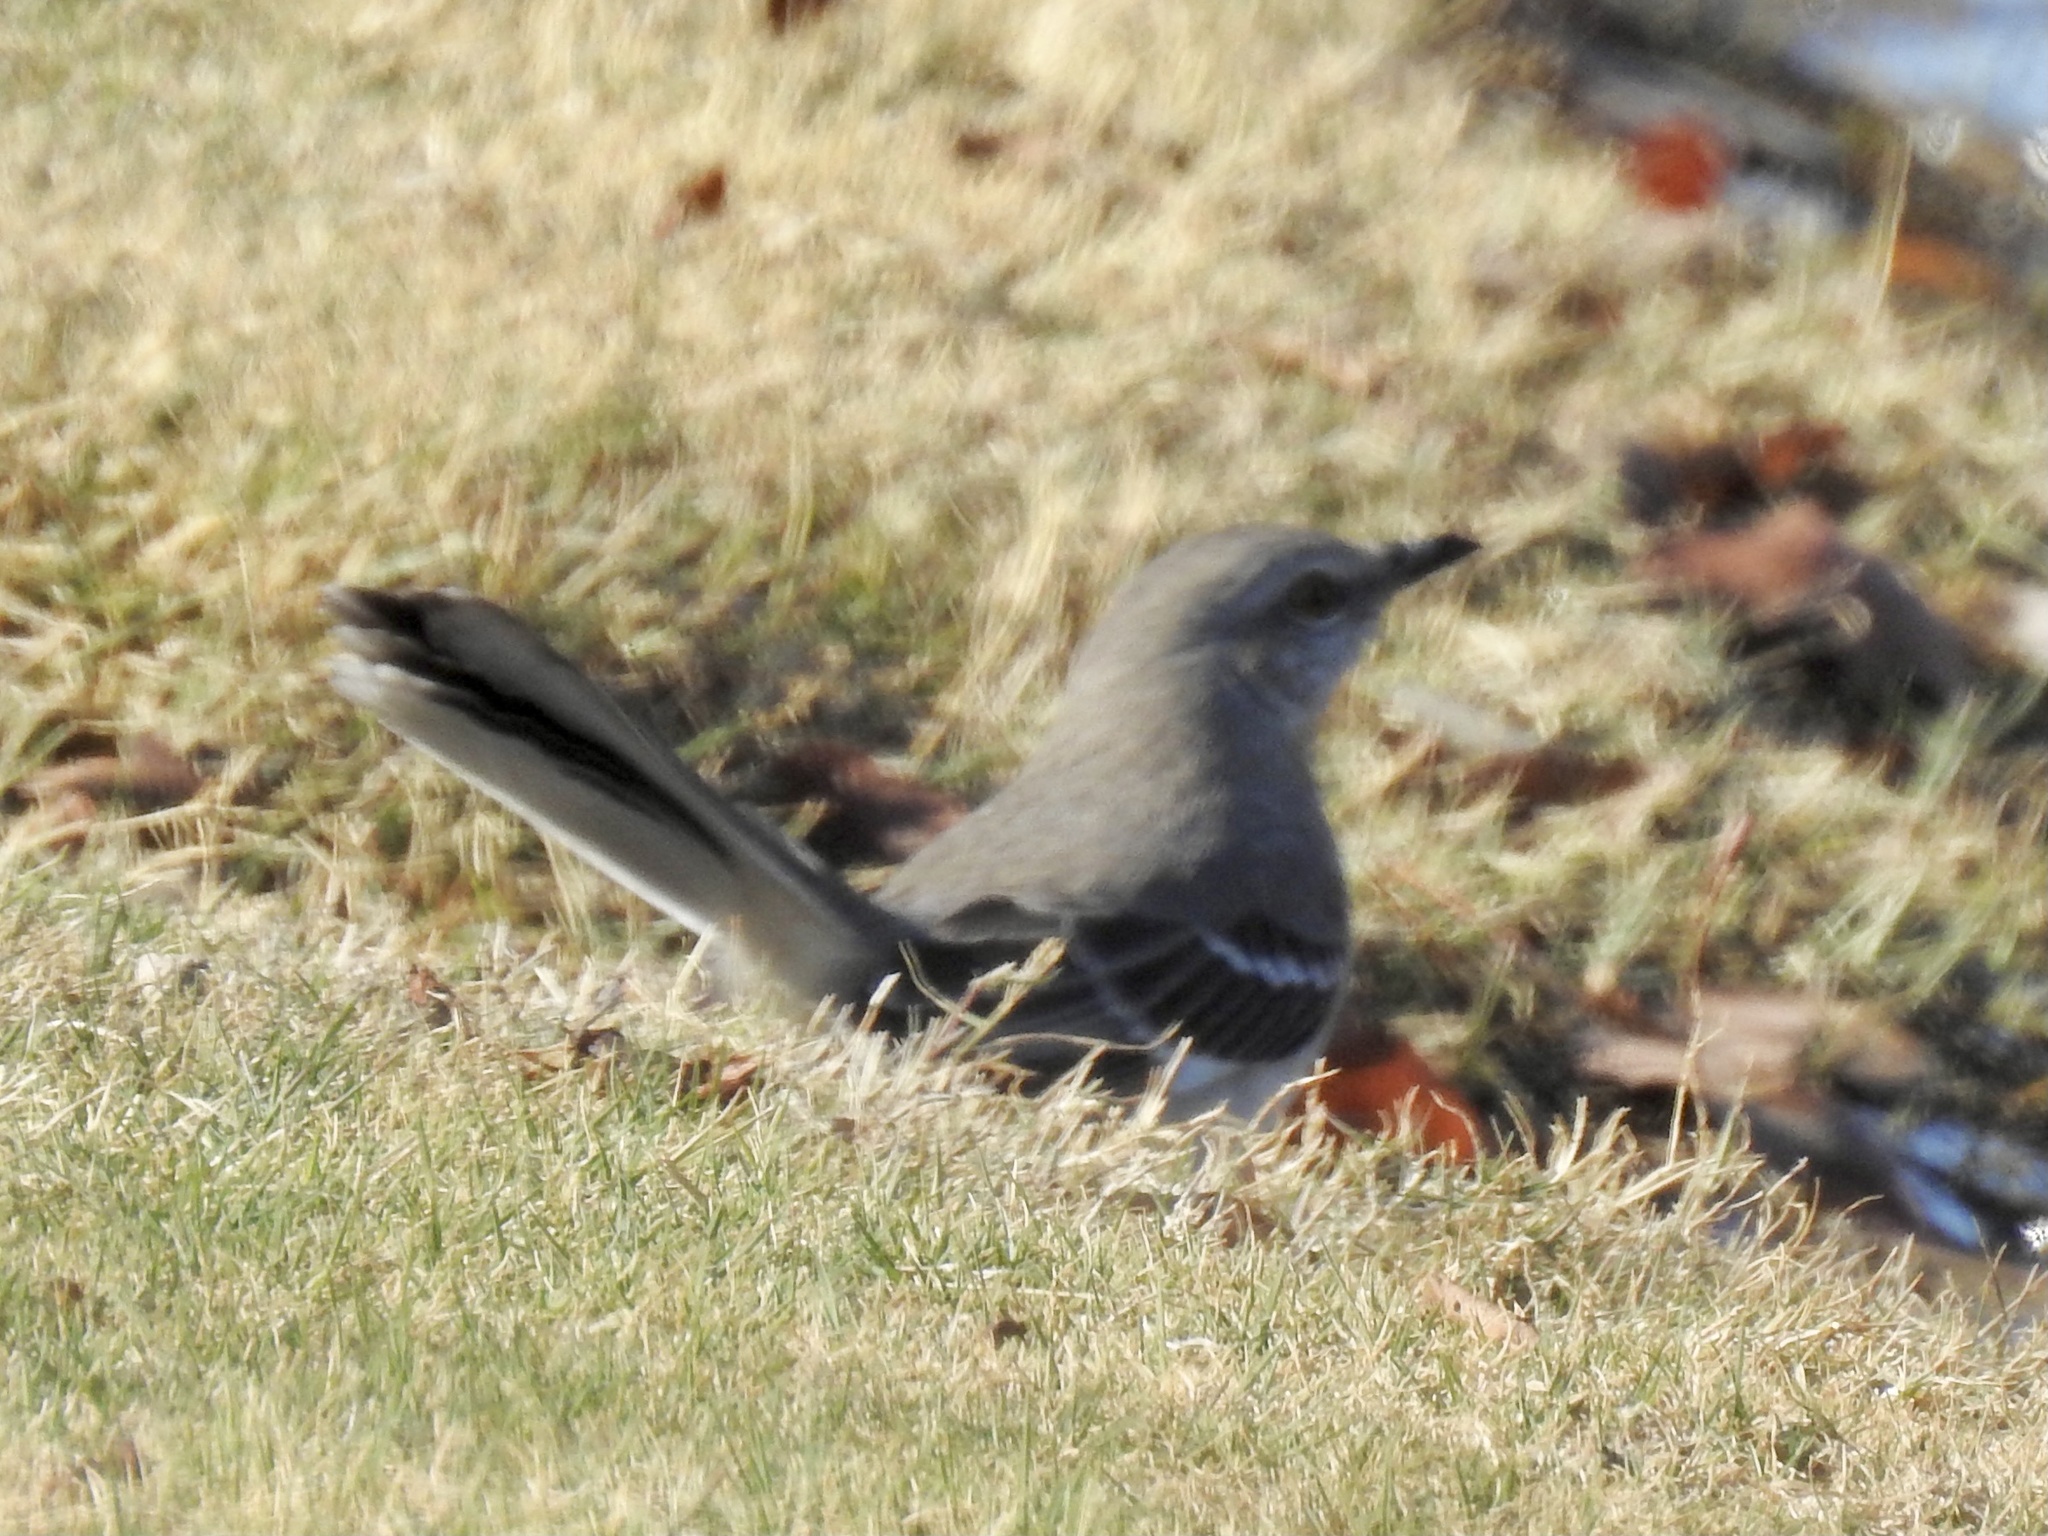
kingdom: Animalia
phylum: Chordata
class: Aves
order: Passeriformes
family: Mimidae
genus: Mimus
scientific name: Mimus polyglottos
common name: Northern mockingbird
